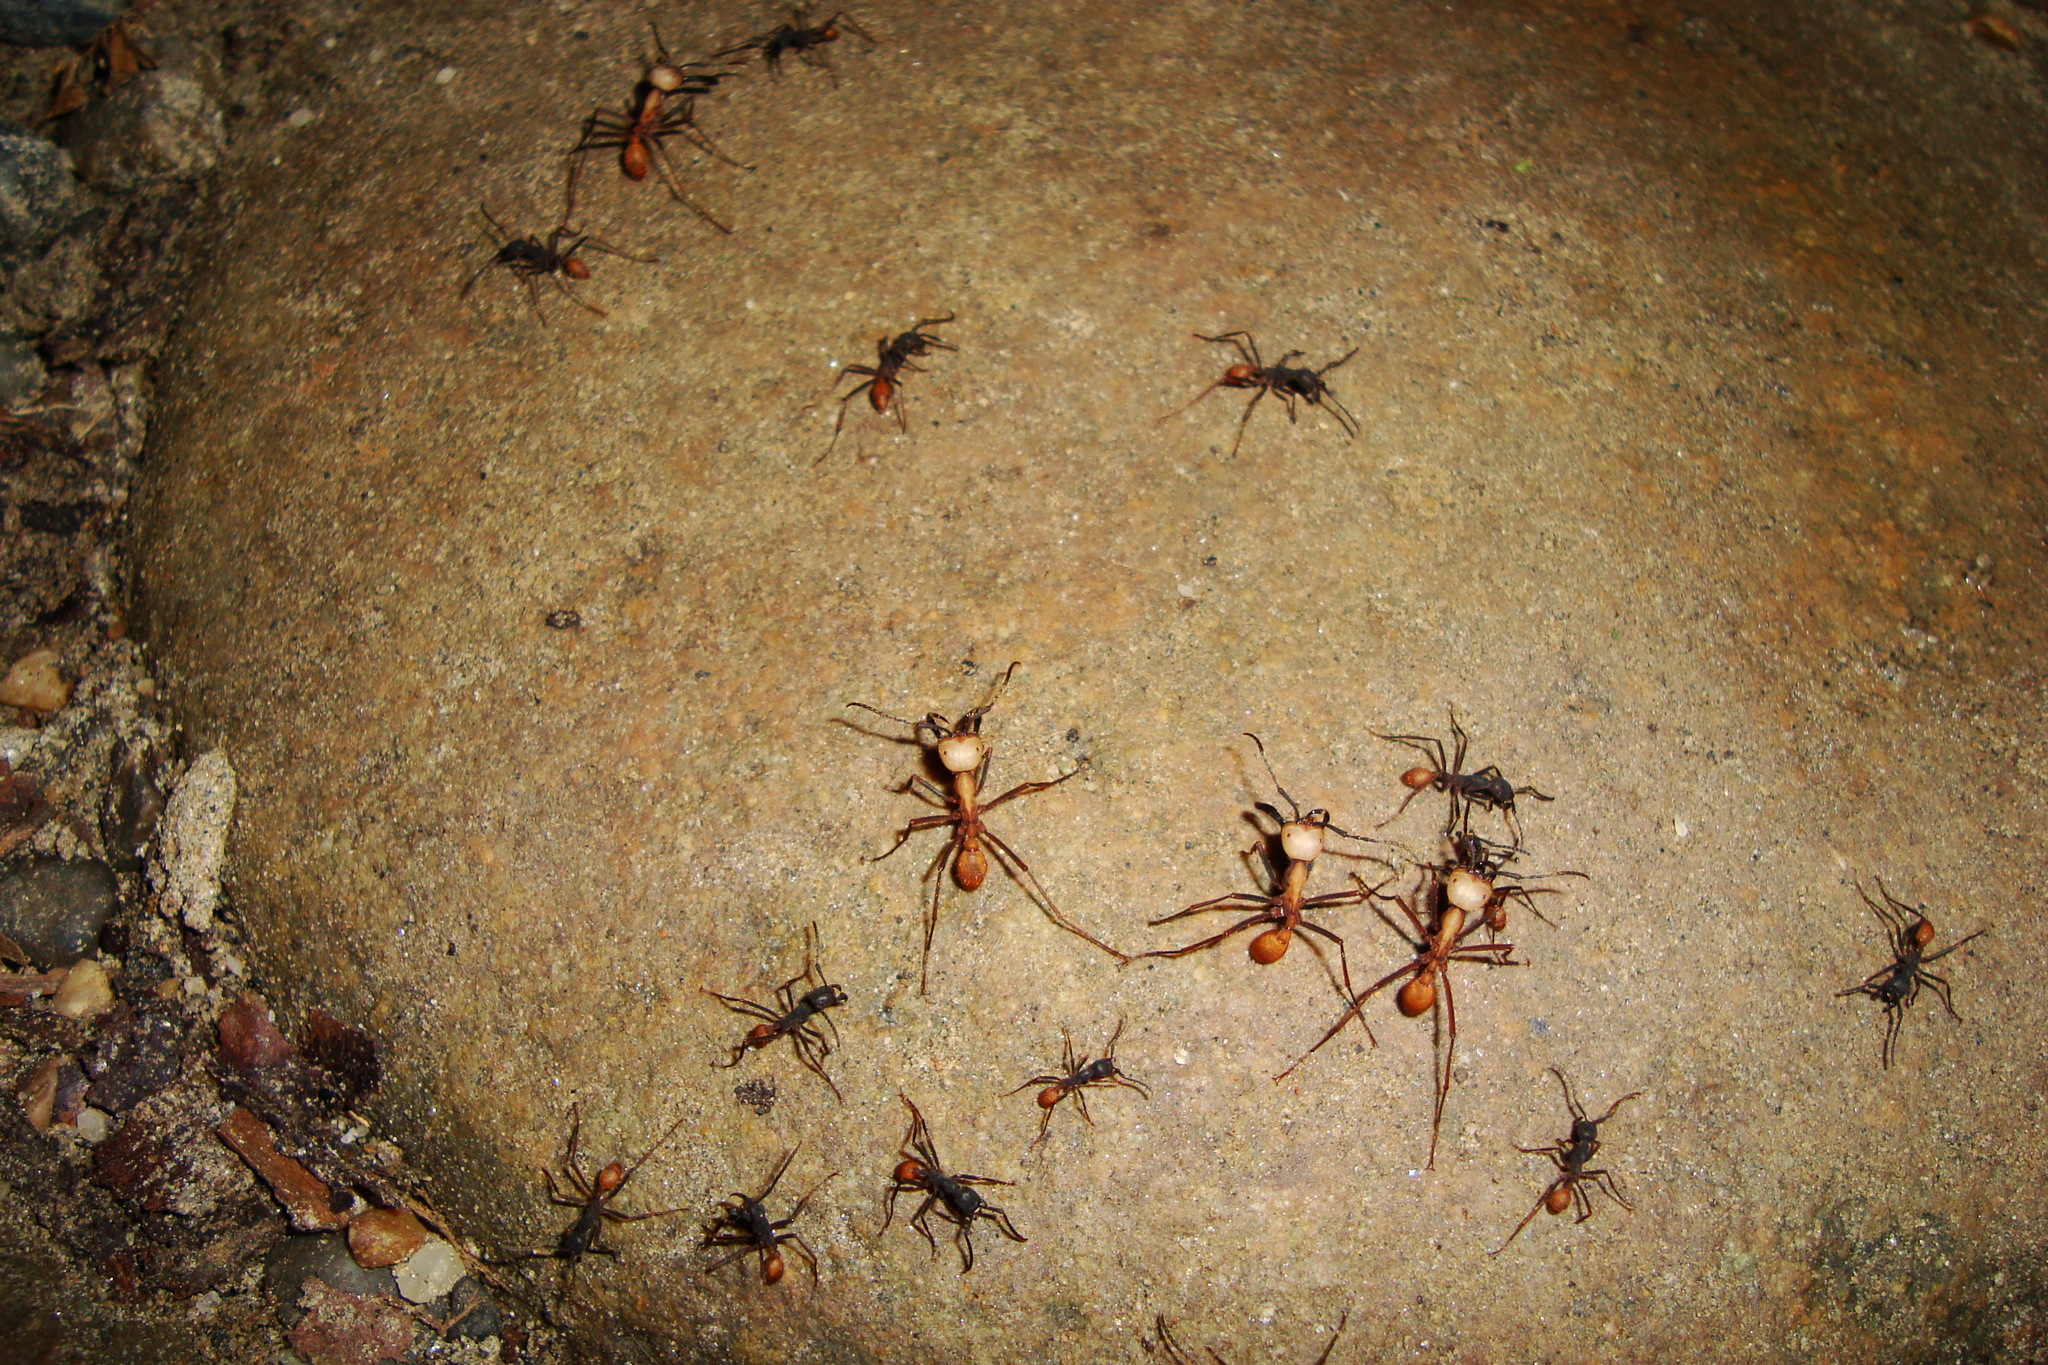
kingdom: Animalia
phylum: Arthropoda
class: Insecta
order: Hymenoptera
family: Formicidae
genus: Eciton
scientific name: Eciton burchellii
